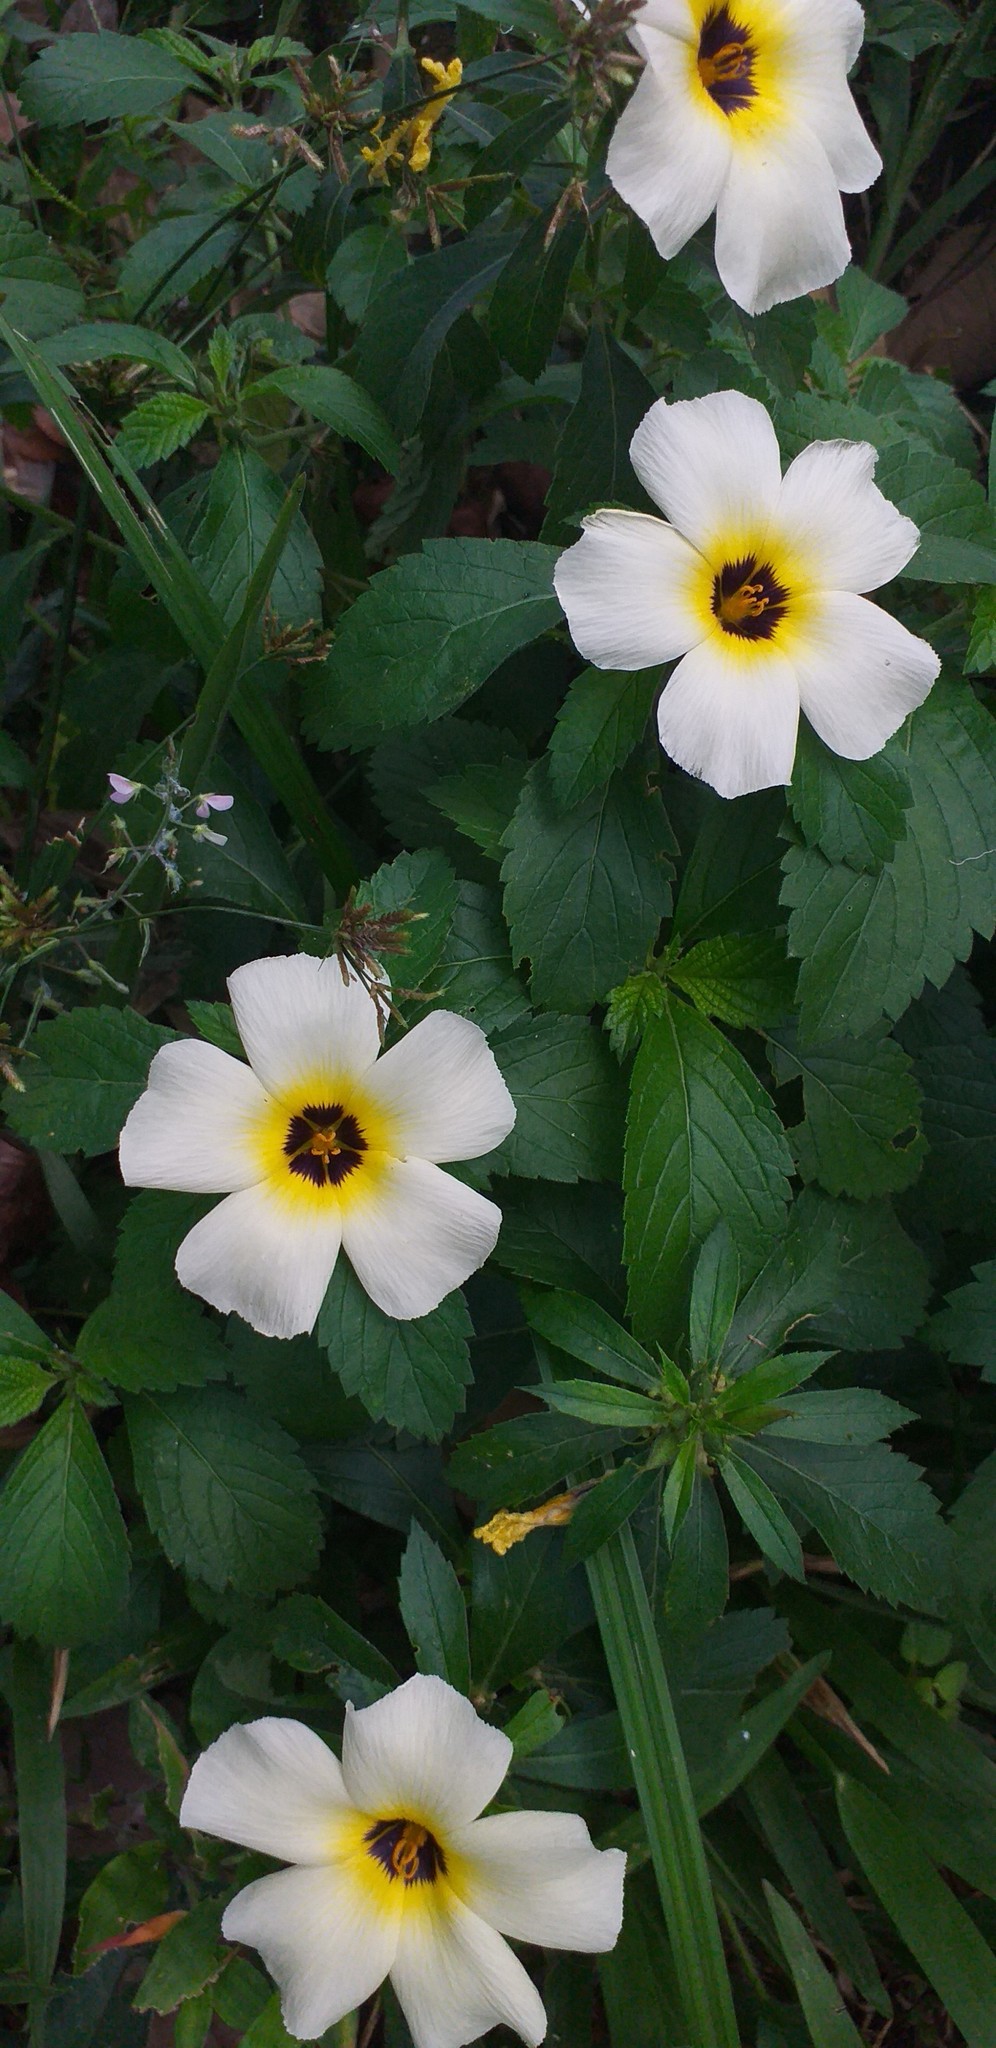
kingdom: Plantae
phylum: Tracheophyta
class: Magnoliopsida
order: Malpighiales
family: Turneraceae
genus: Turnera
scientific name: Turnera subulata
